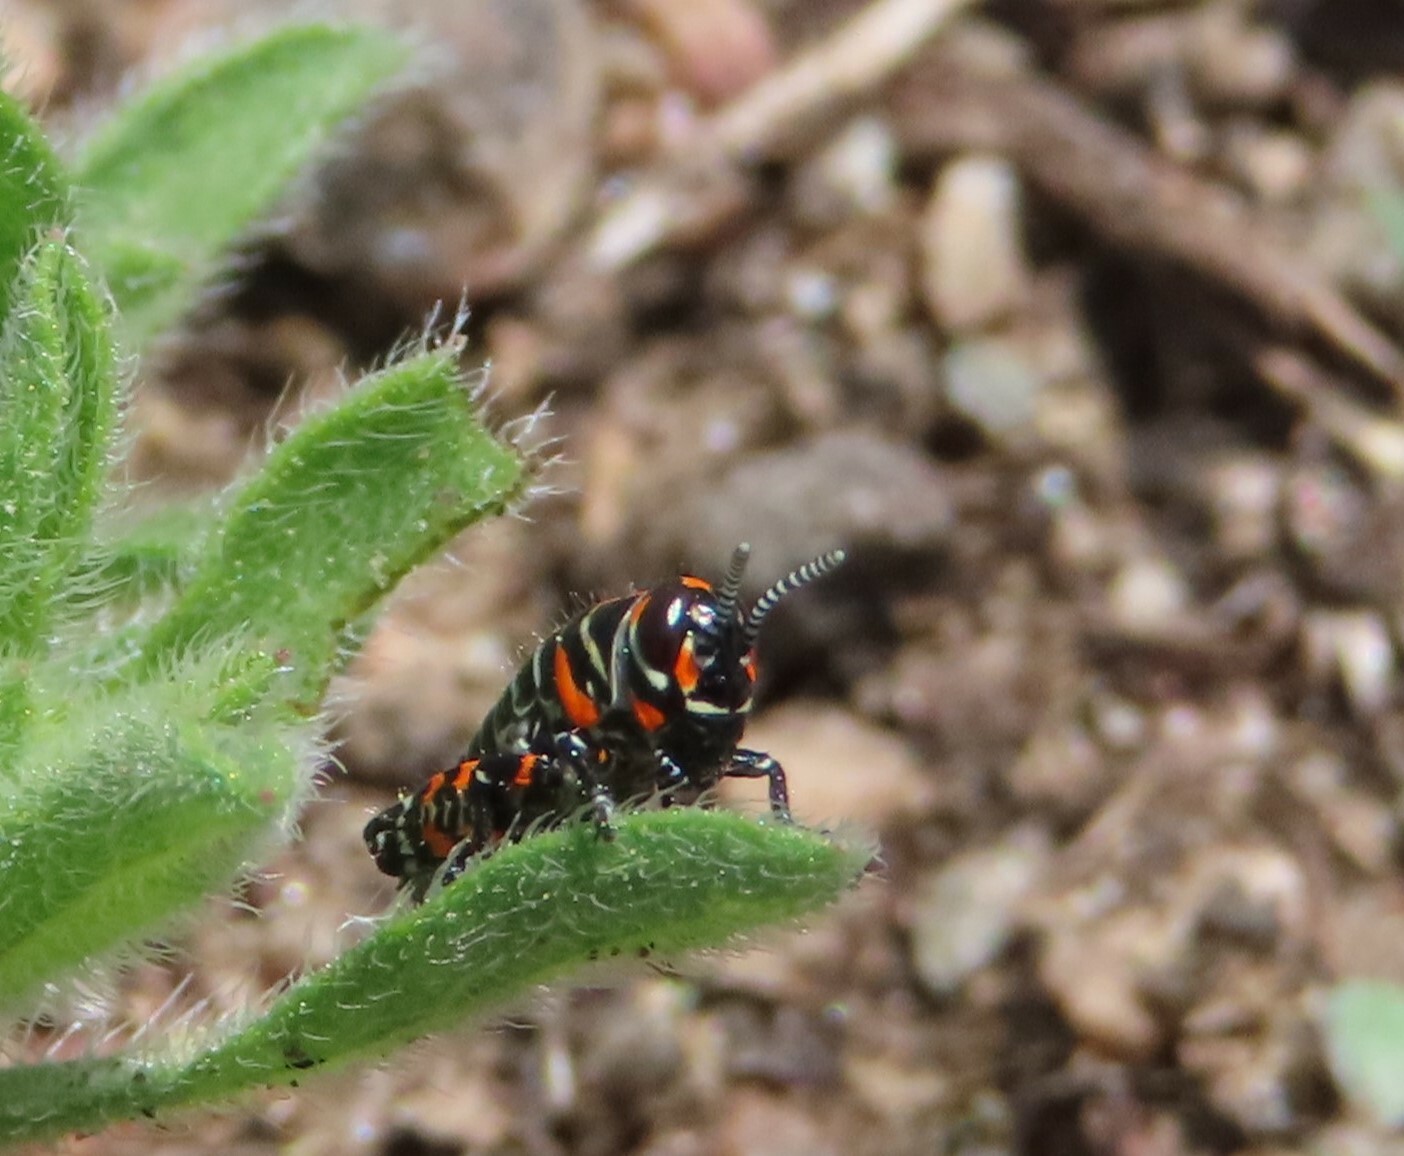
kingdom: Animalia
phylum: Arthropoda
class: Insecta
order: Orthoptera
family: Acrididae
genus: Dactylotum
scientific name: Dactylotum bicolor
